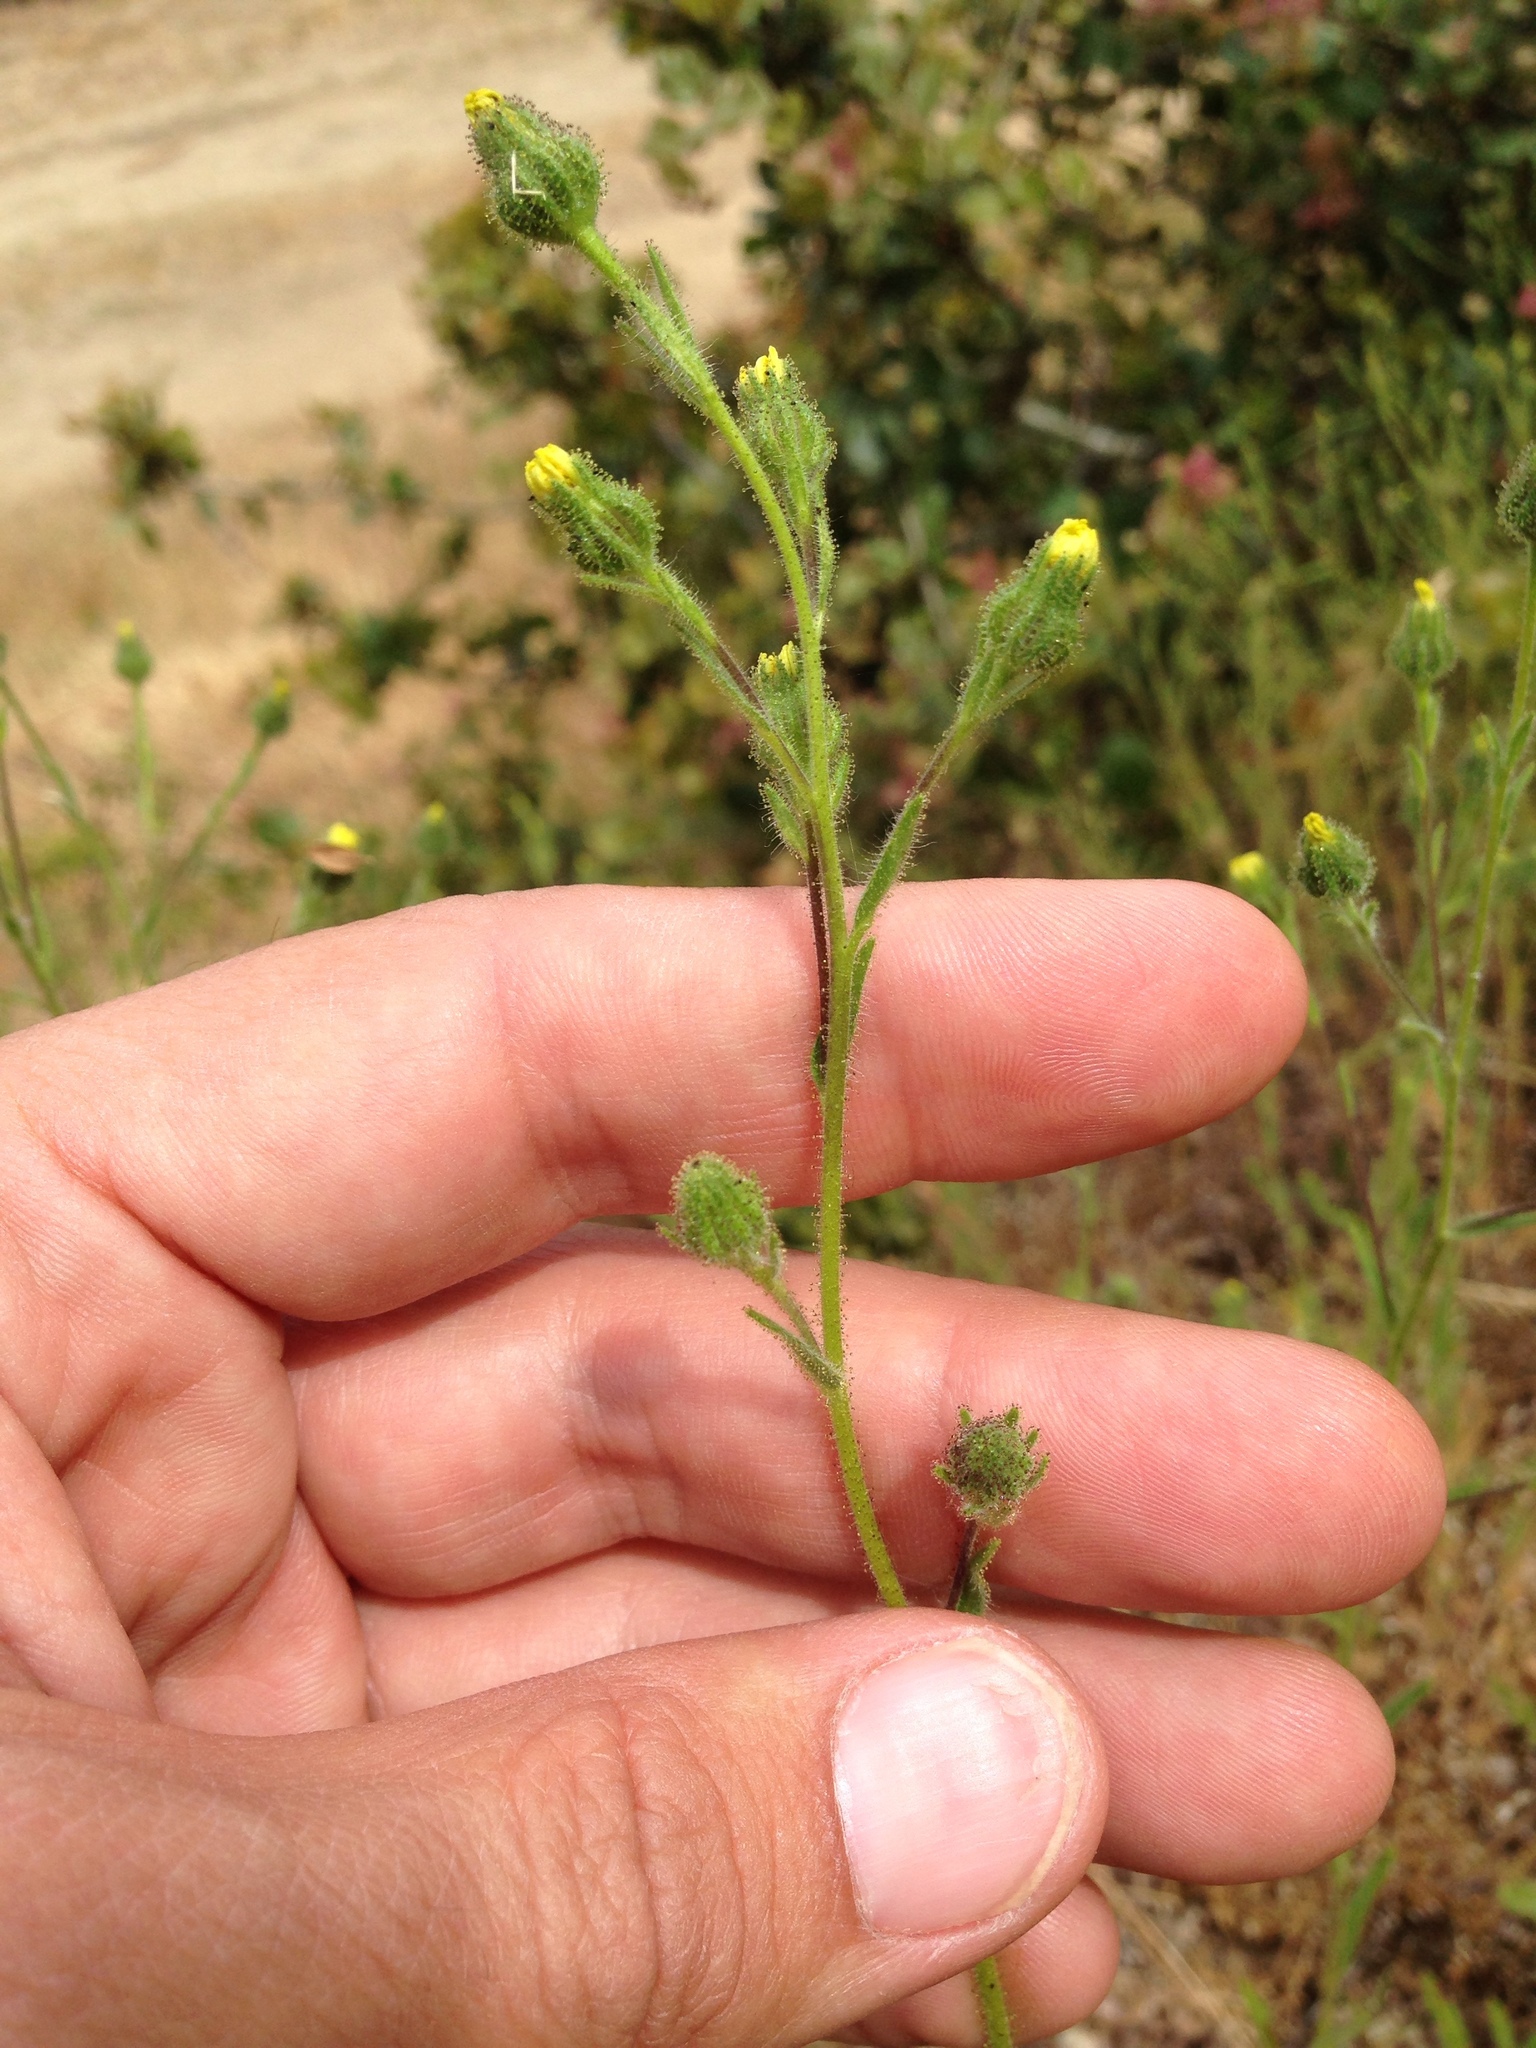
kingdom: Plantae
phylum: Tracheophyta
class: Magnoliopsida
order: Asterales
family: Asteraceae
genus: Madia
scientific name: Madia gracilis
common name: Grassy tarweed
